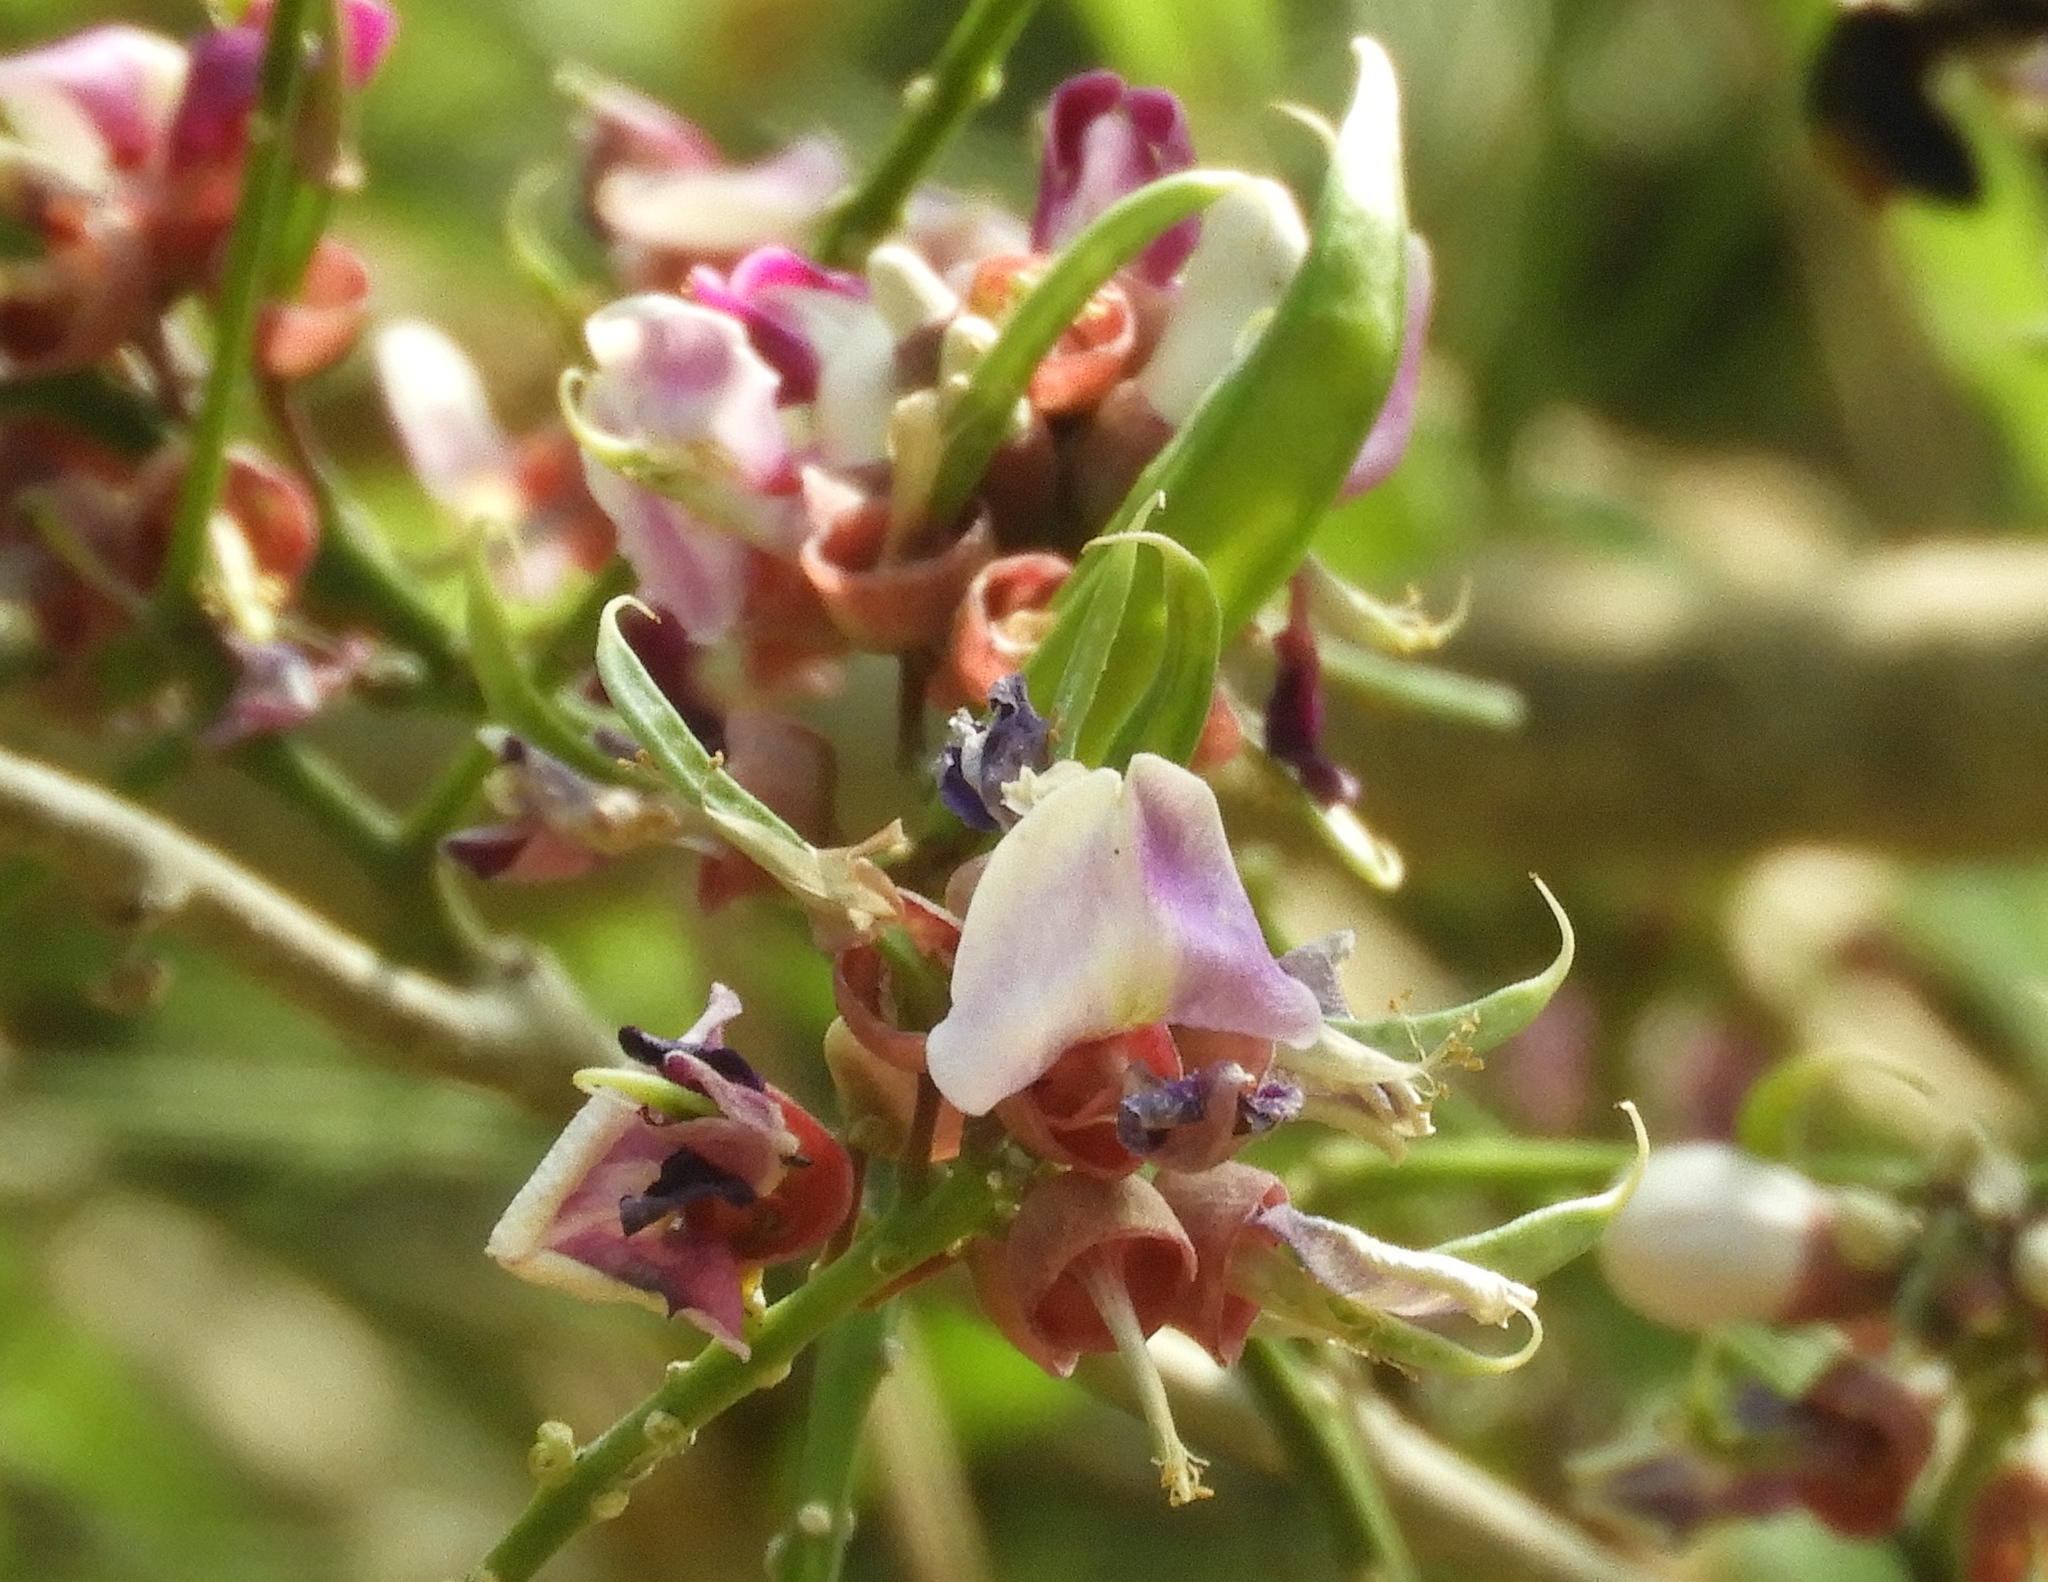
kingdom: Plantae
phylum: Tracheophyta
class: Magnoliopsida
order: Fabales
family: Fabaceae
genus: Lonchocarpus
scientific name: Lonchocarpus guatemalensis
